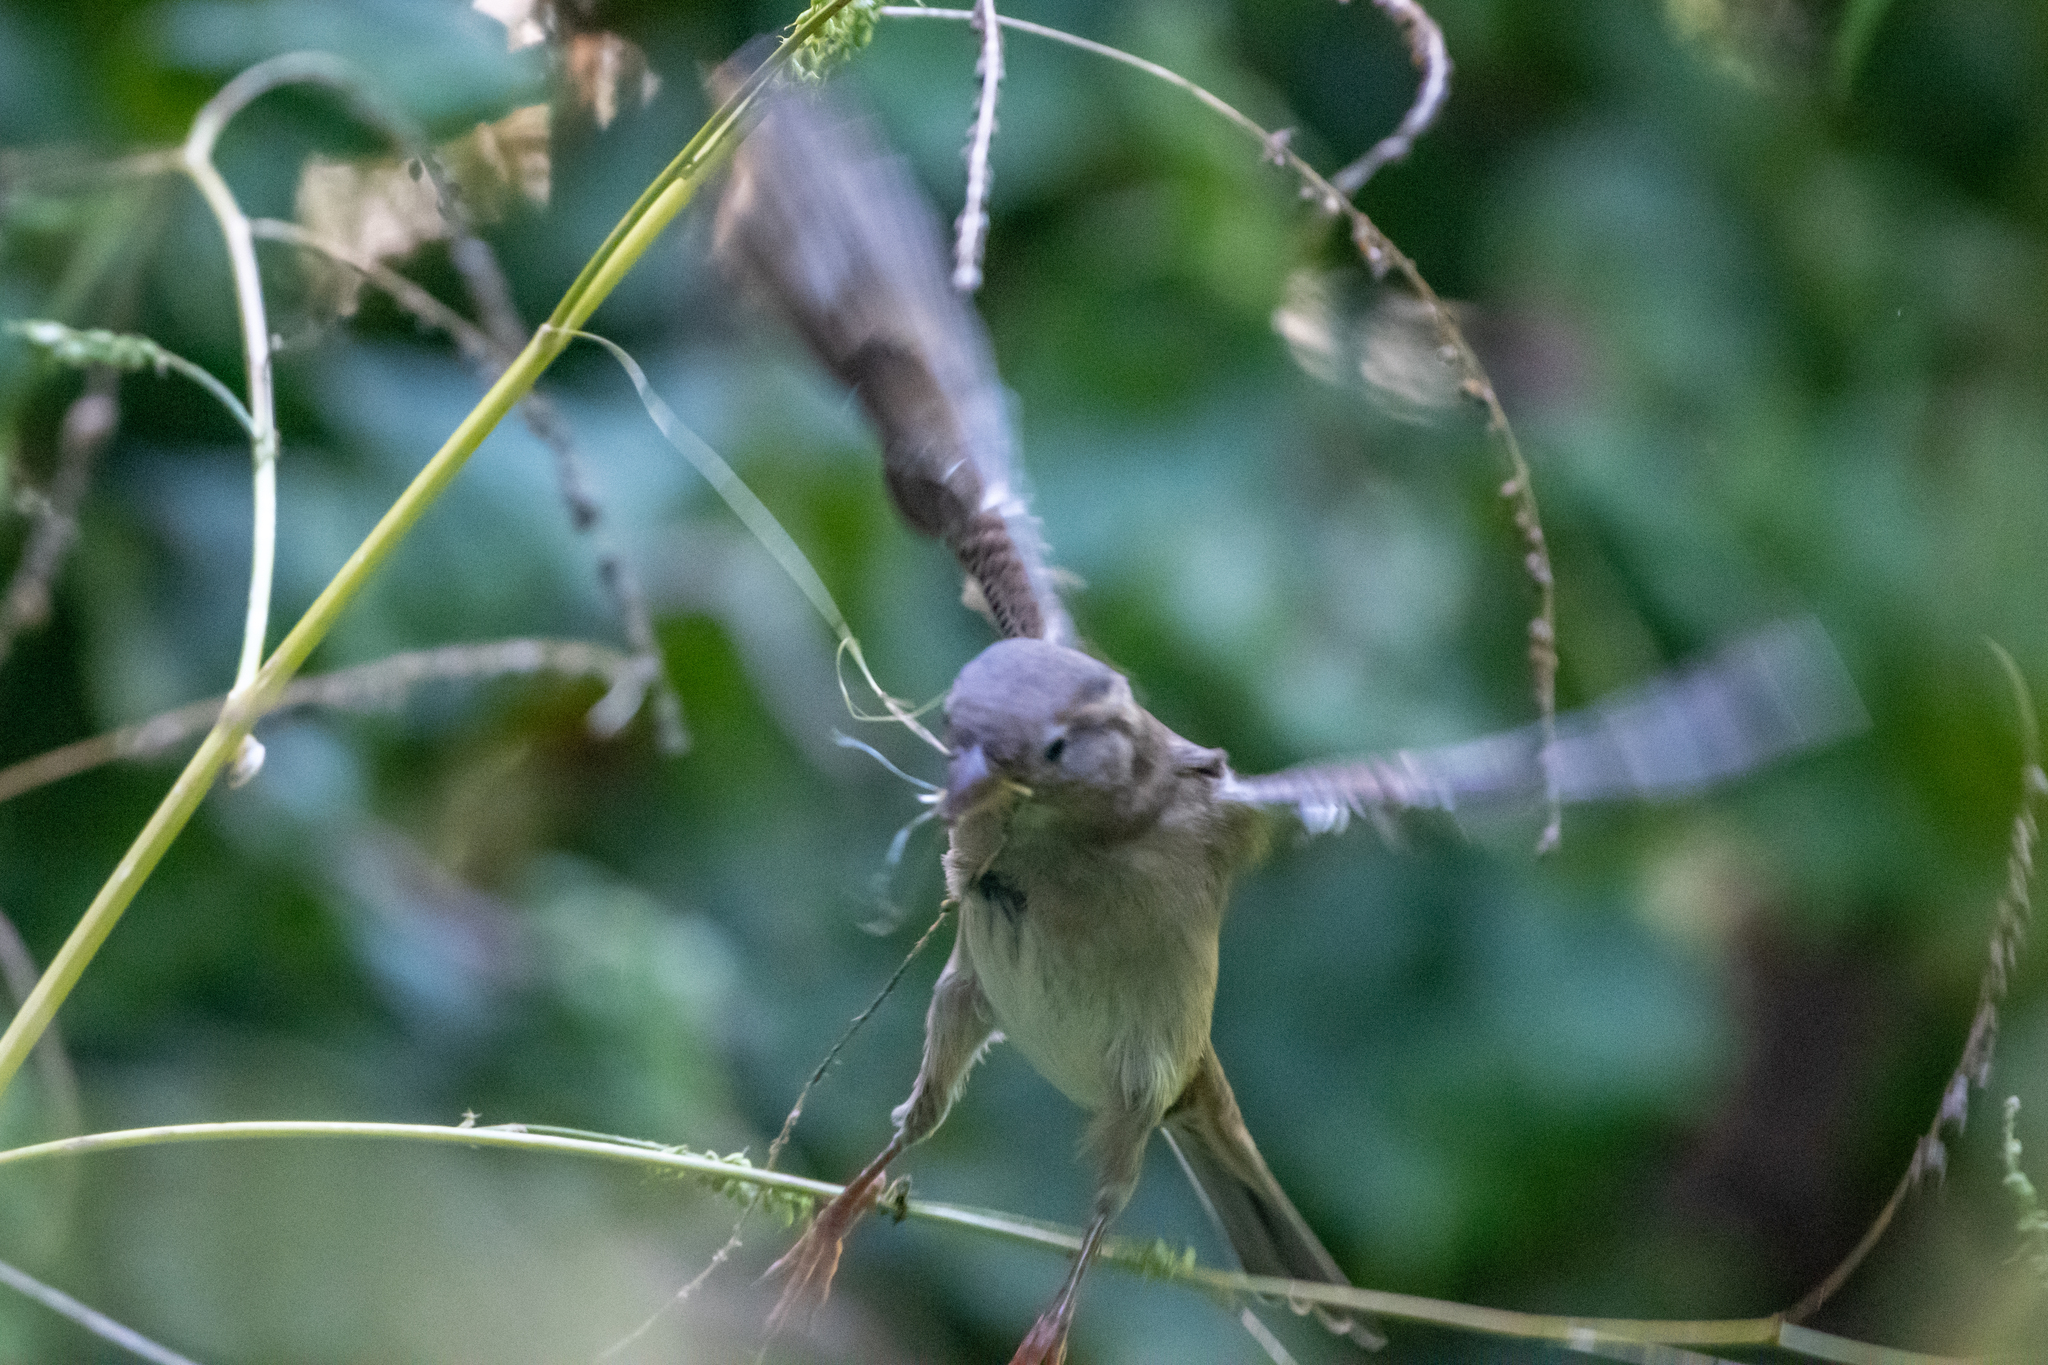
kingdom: Animalia
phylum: Chordata
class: Aves
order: Passeriformes
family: Passeridae
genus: Passer
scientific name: Passer domesticus
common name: House sparrow
